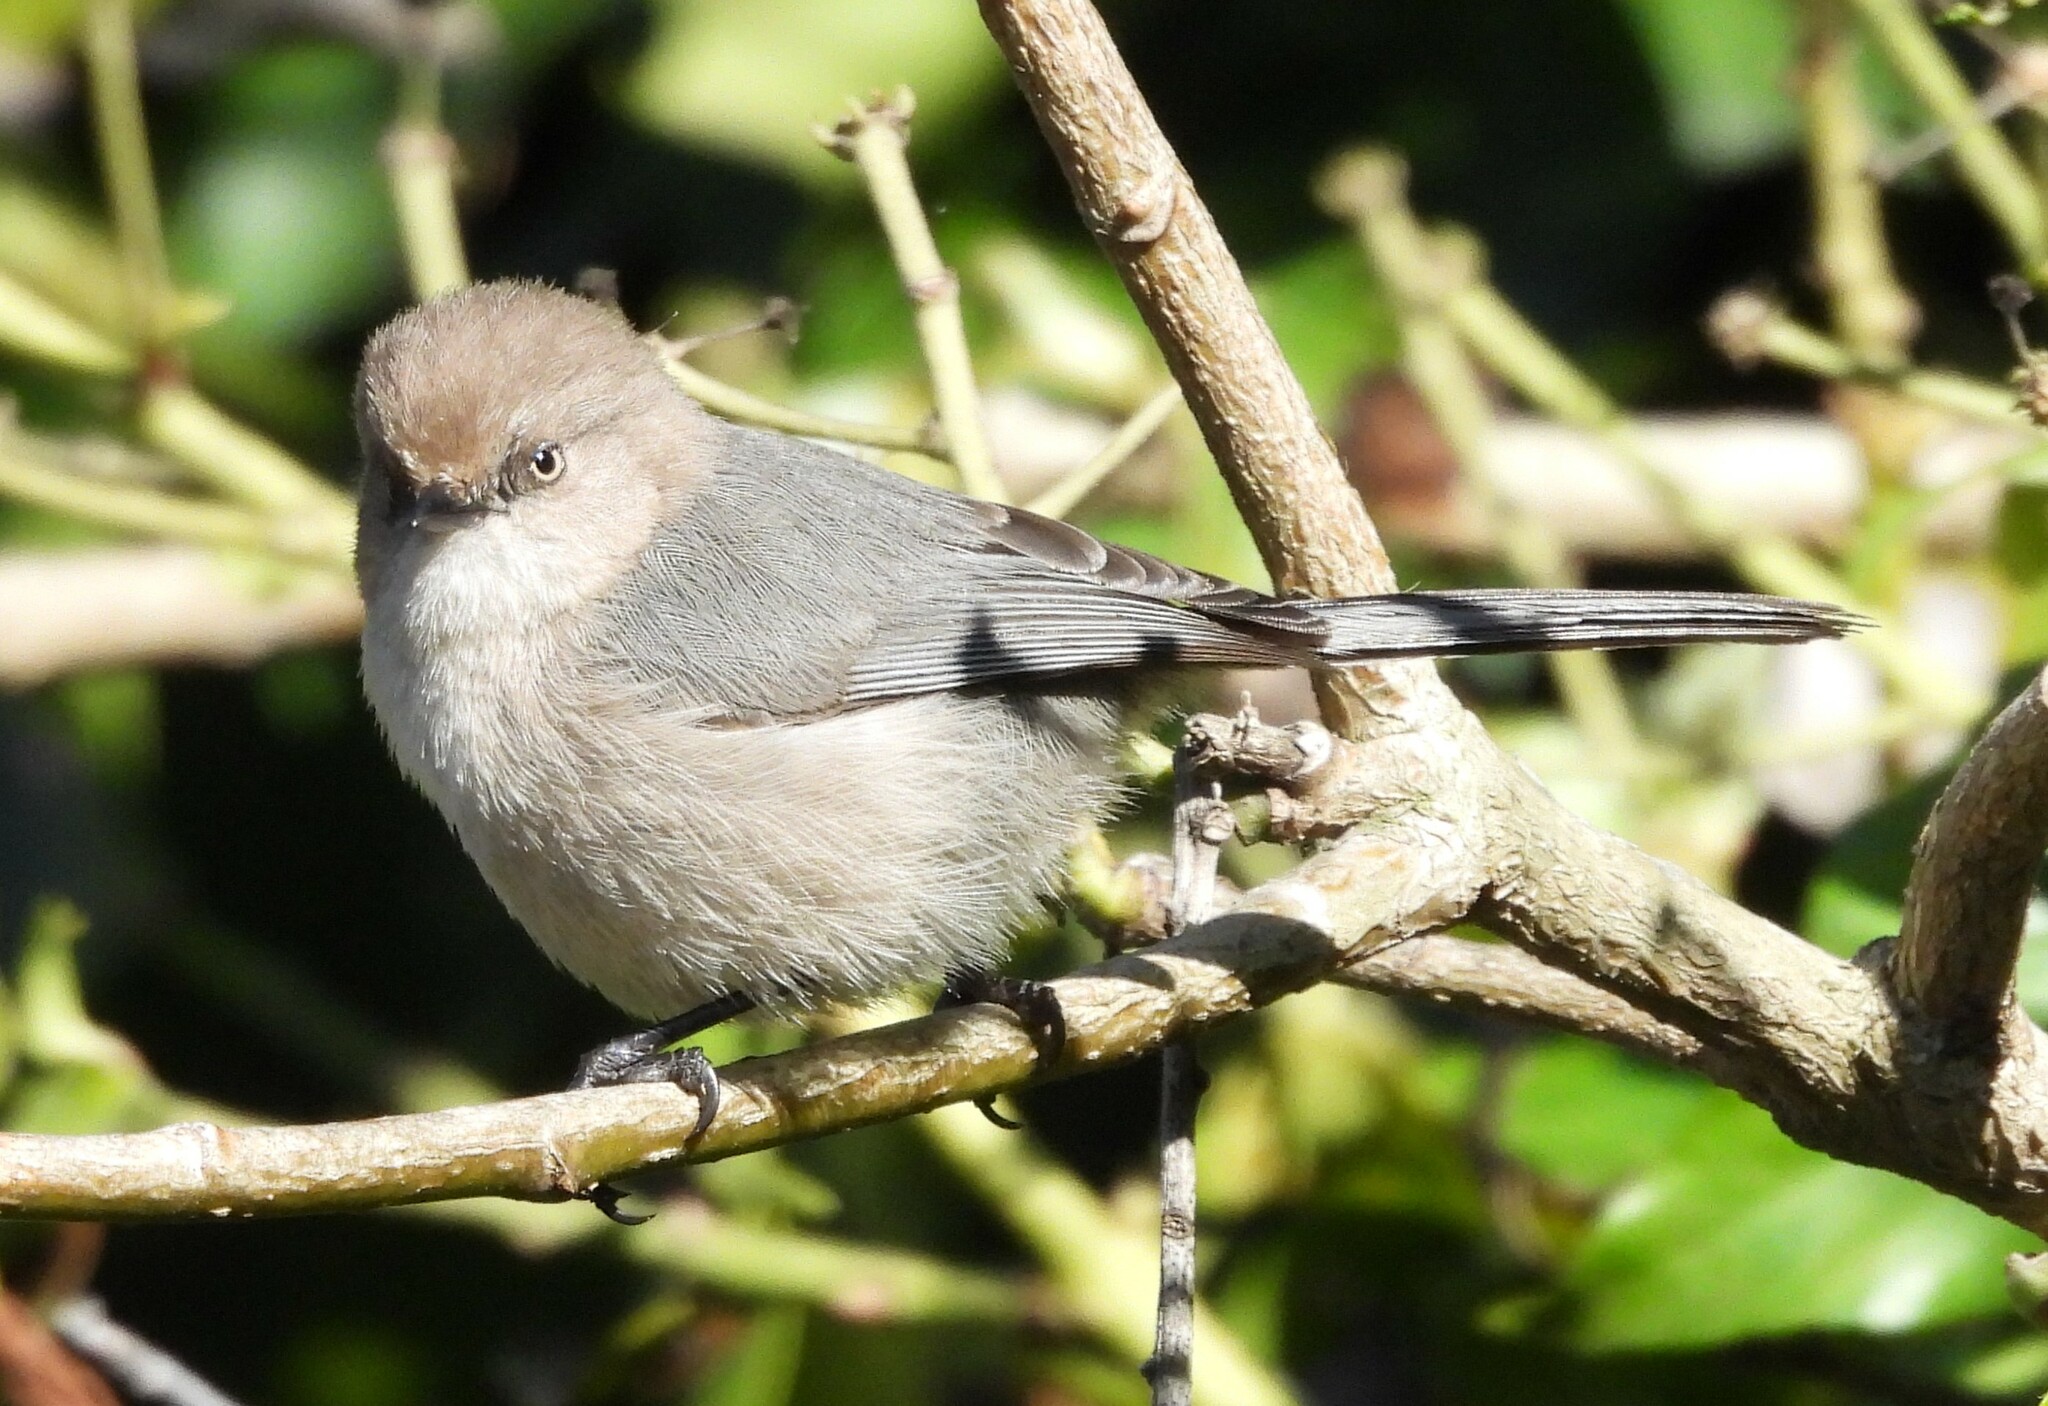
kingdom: Animalia
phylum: Chordata
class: Aves
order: Passeriformes
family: Aegithalidae
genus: Psaltriparus
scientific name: Psaltriparus minimus
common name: American bushtit
